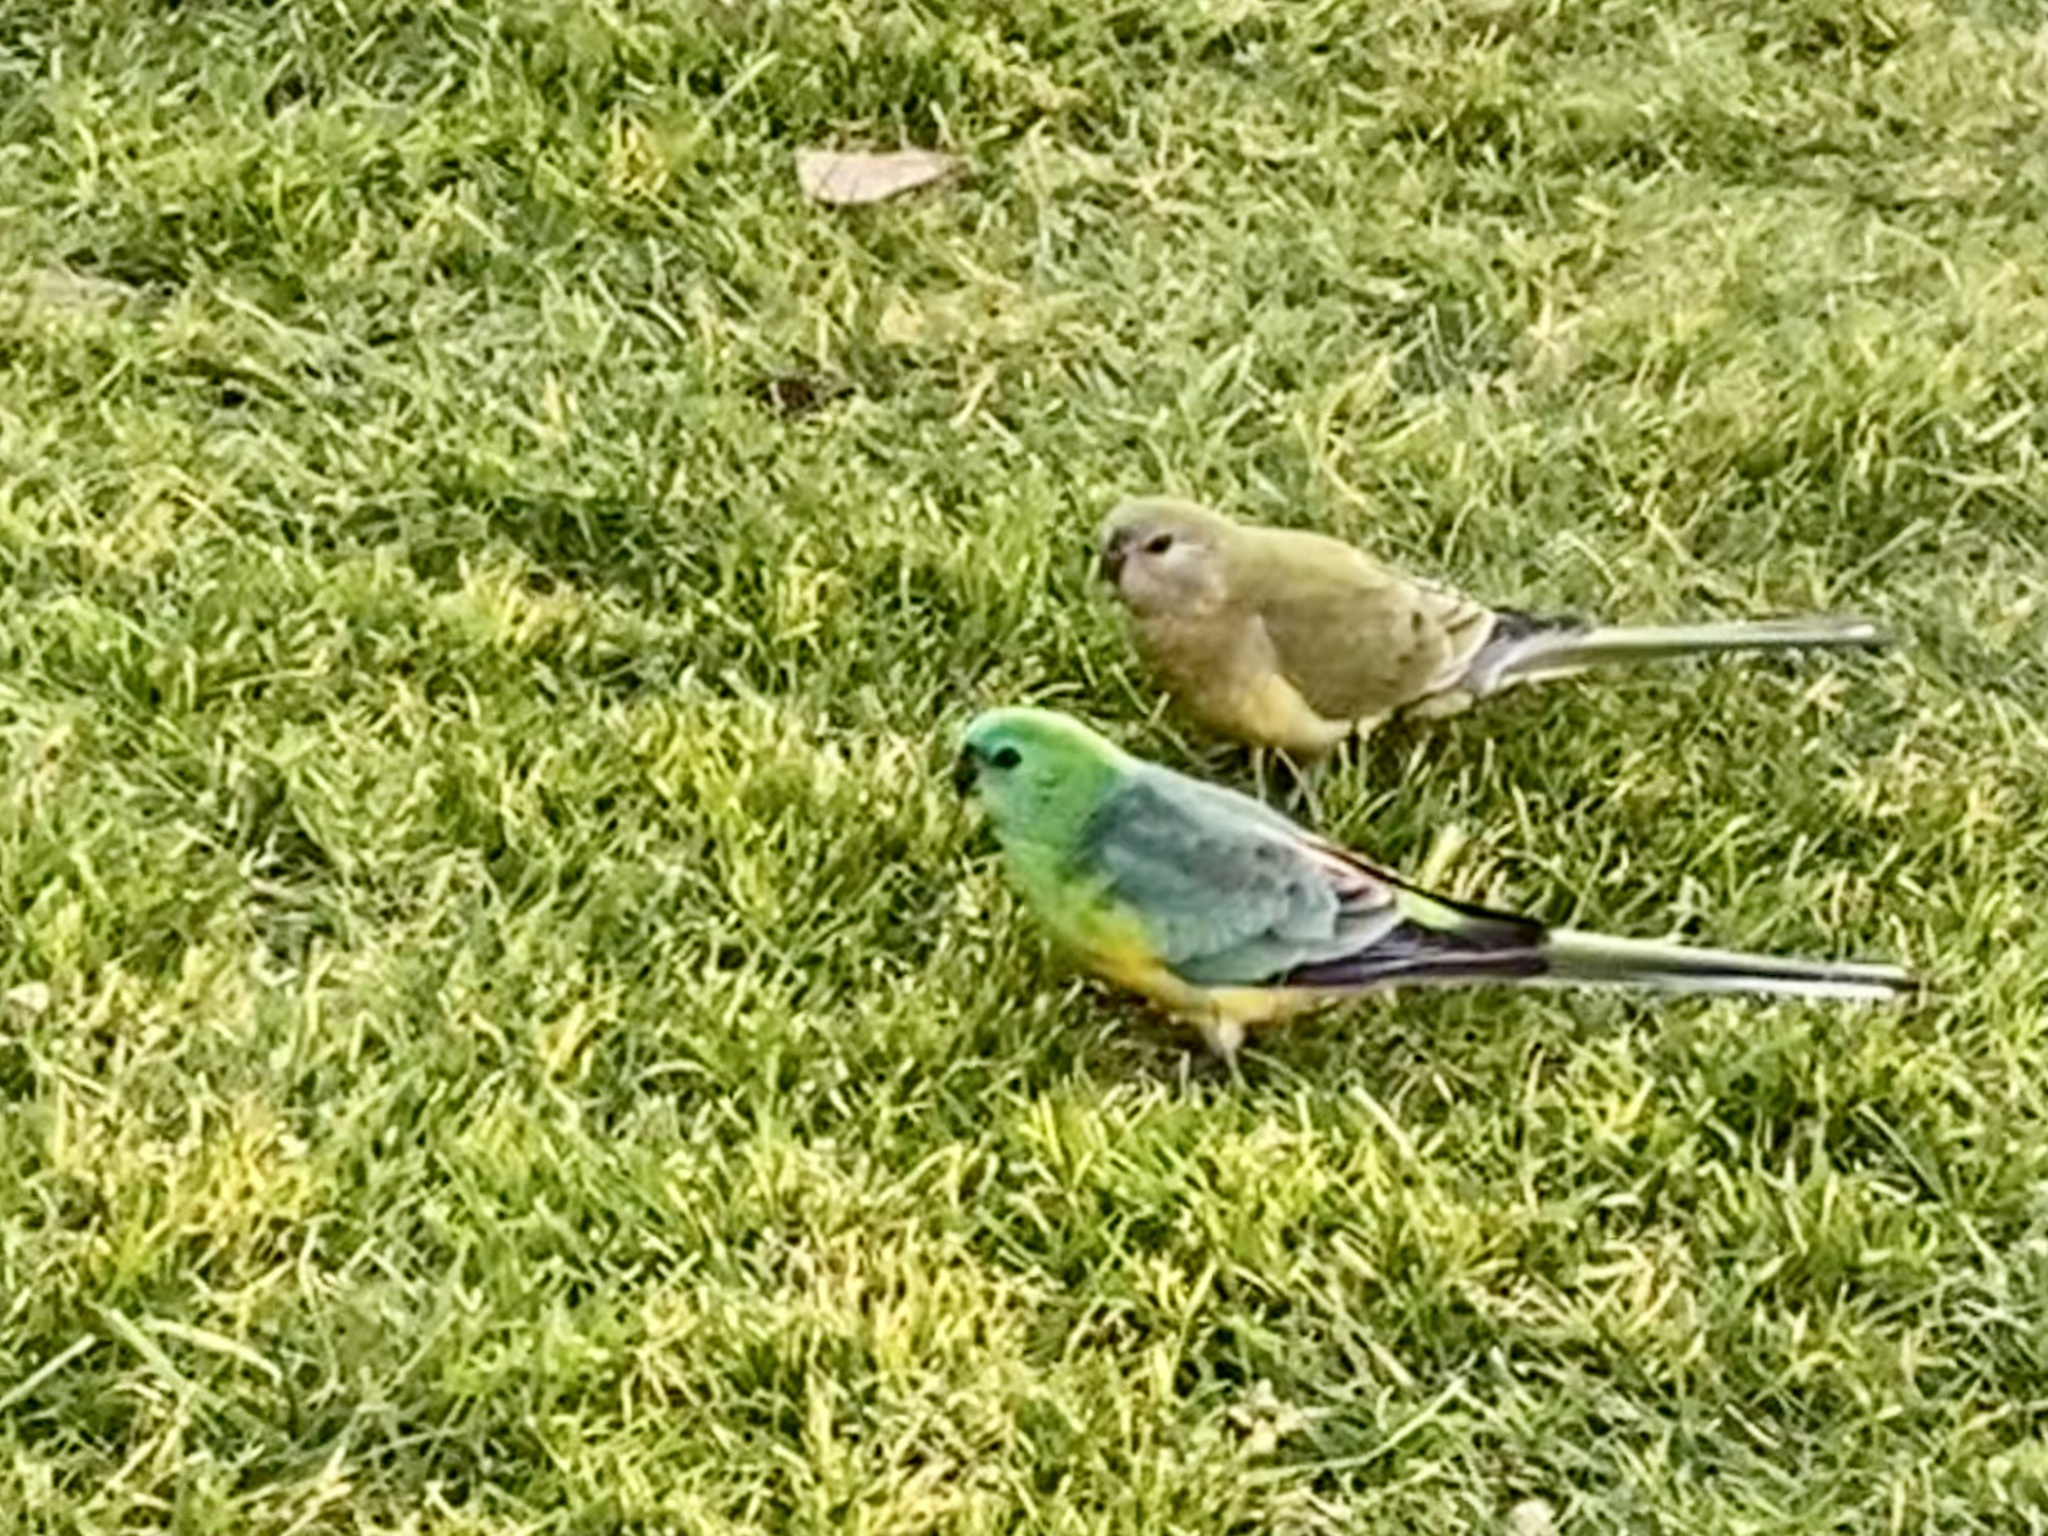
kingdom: Animalia
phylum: Chordata
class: Aves
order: Psittaciformes
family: Psittacidae
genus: Psephotus
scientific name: Psephotus haematonotus
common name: Red-rumped parrot
